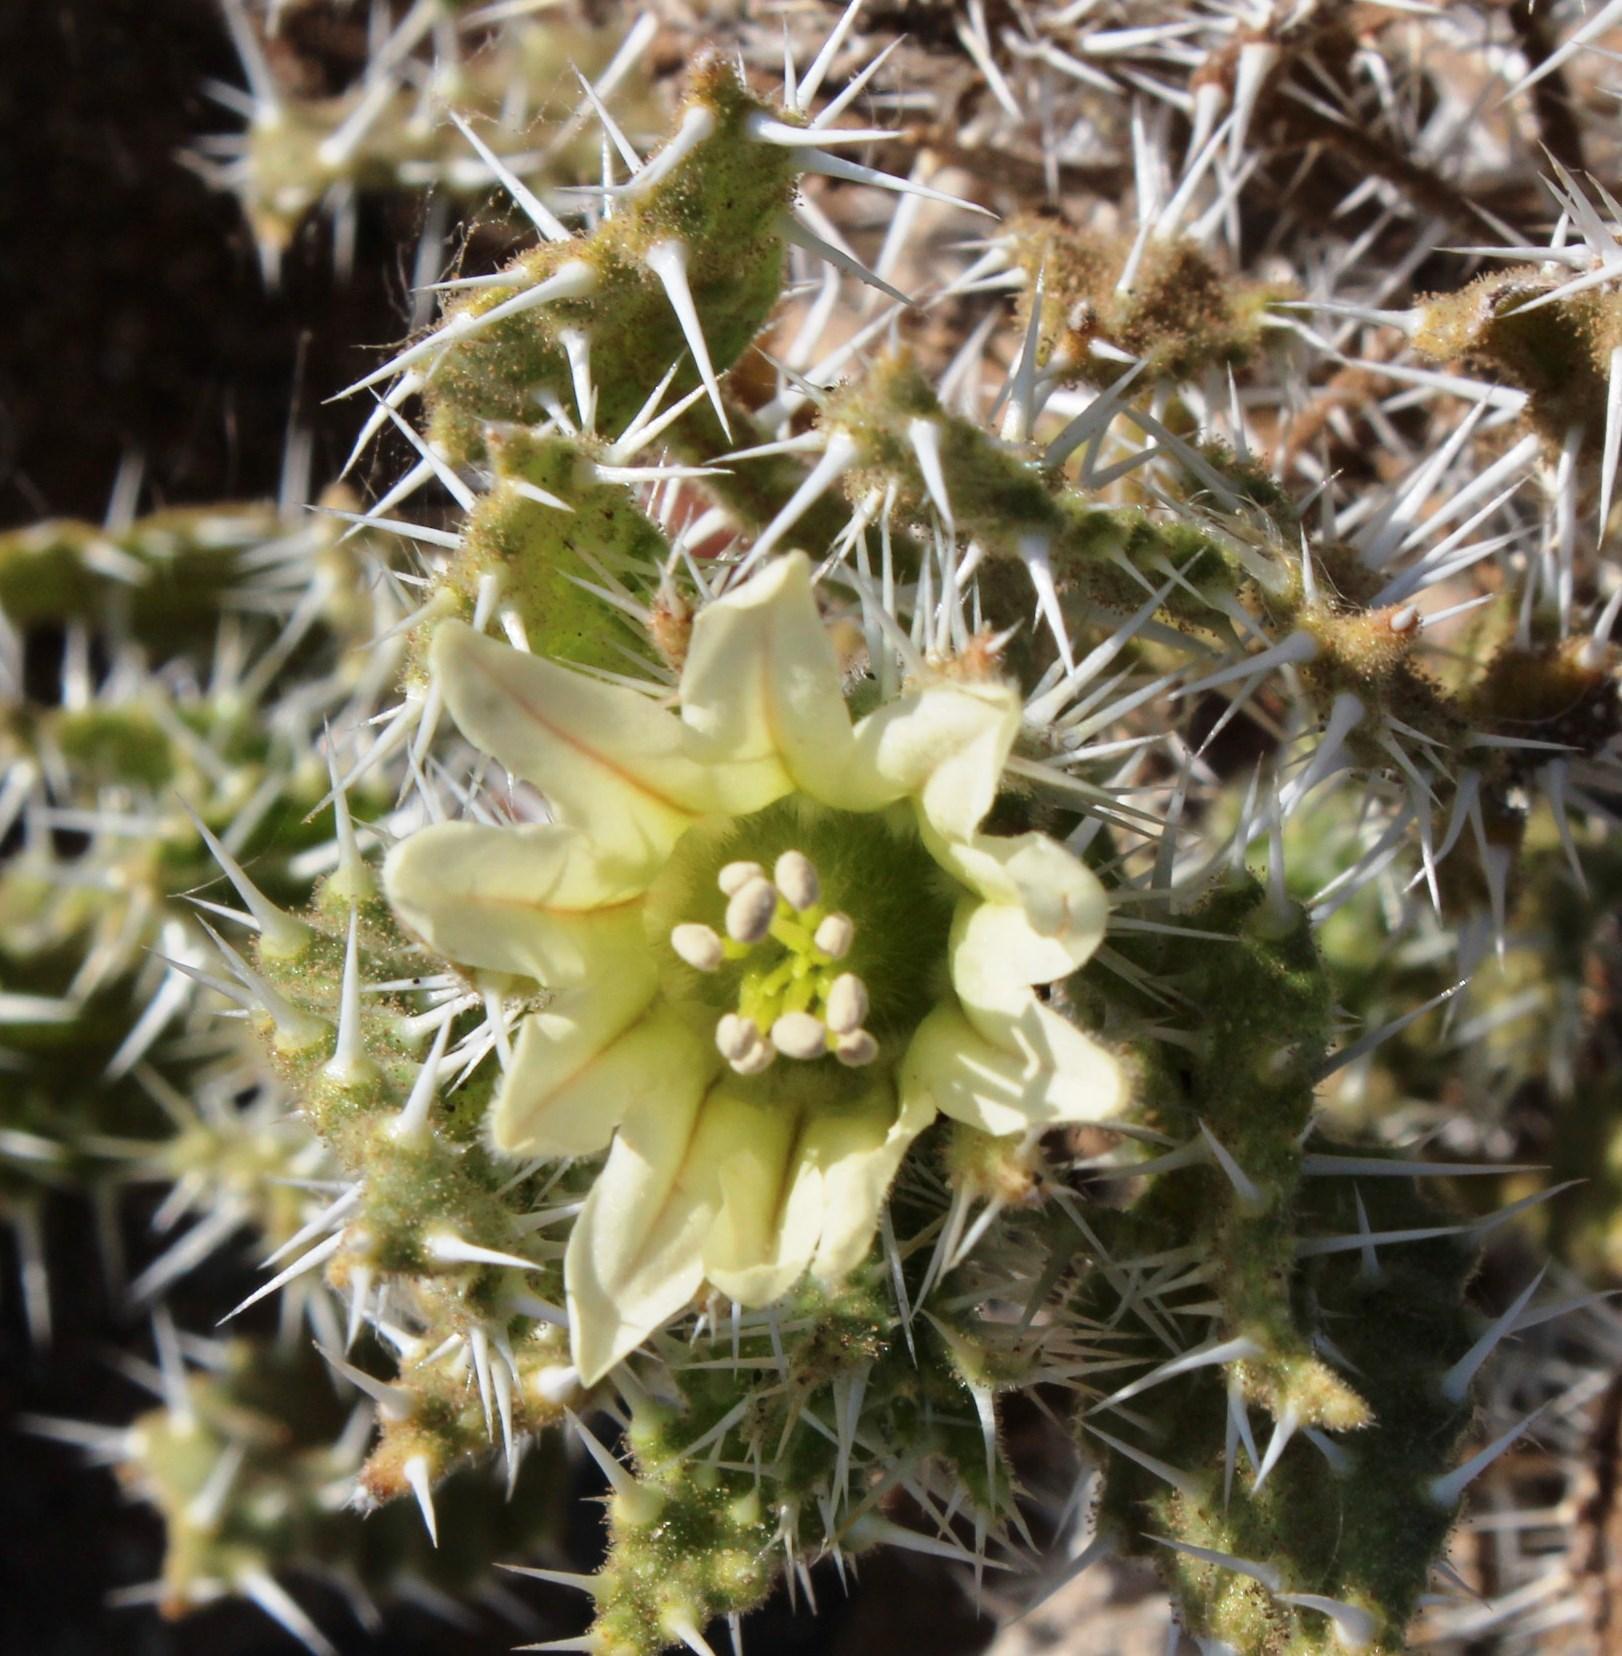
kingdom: Plantae
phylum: Tracheophyta
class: Magnoliopsida
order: Boraginales
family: Boraginaceae
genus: Codon
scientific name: Codon royenii
